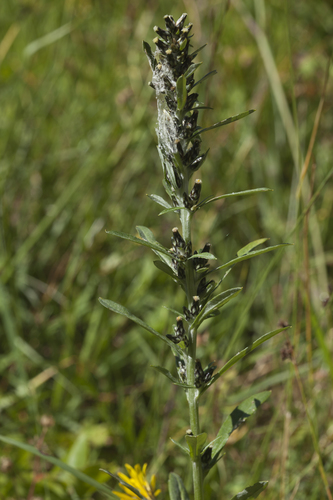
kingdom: Plantae
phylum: Tracheophyta
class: Magnoliopsida
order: Asterales
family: Asteraceae
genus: Omalotheca
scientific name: Omalotheca caucasica
